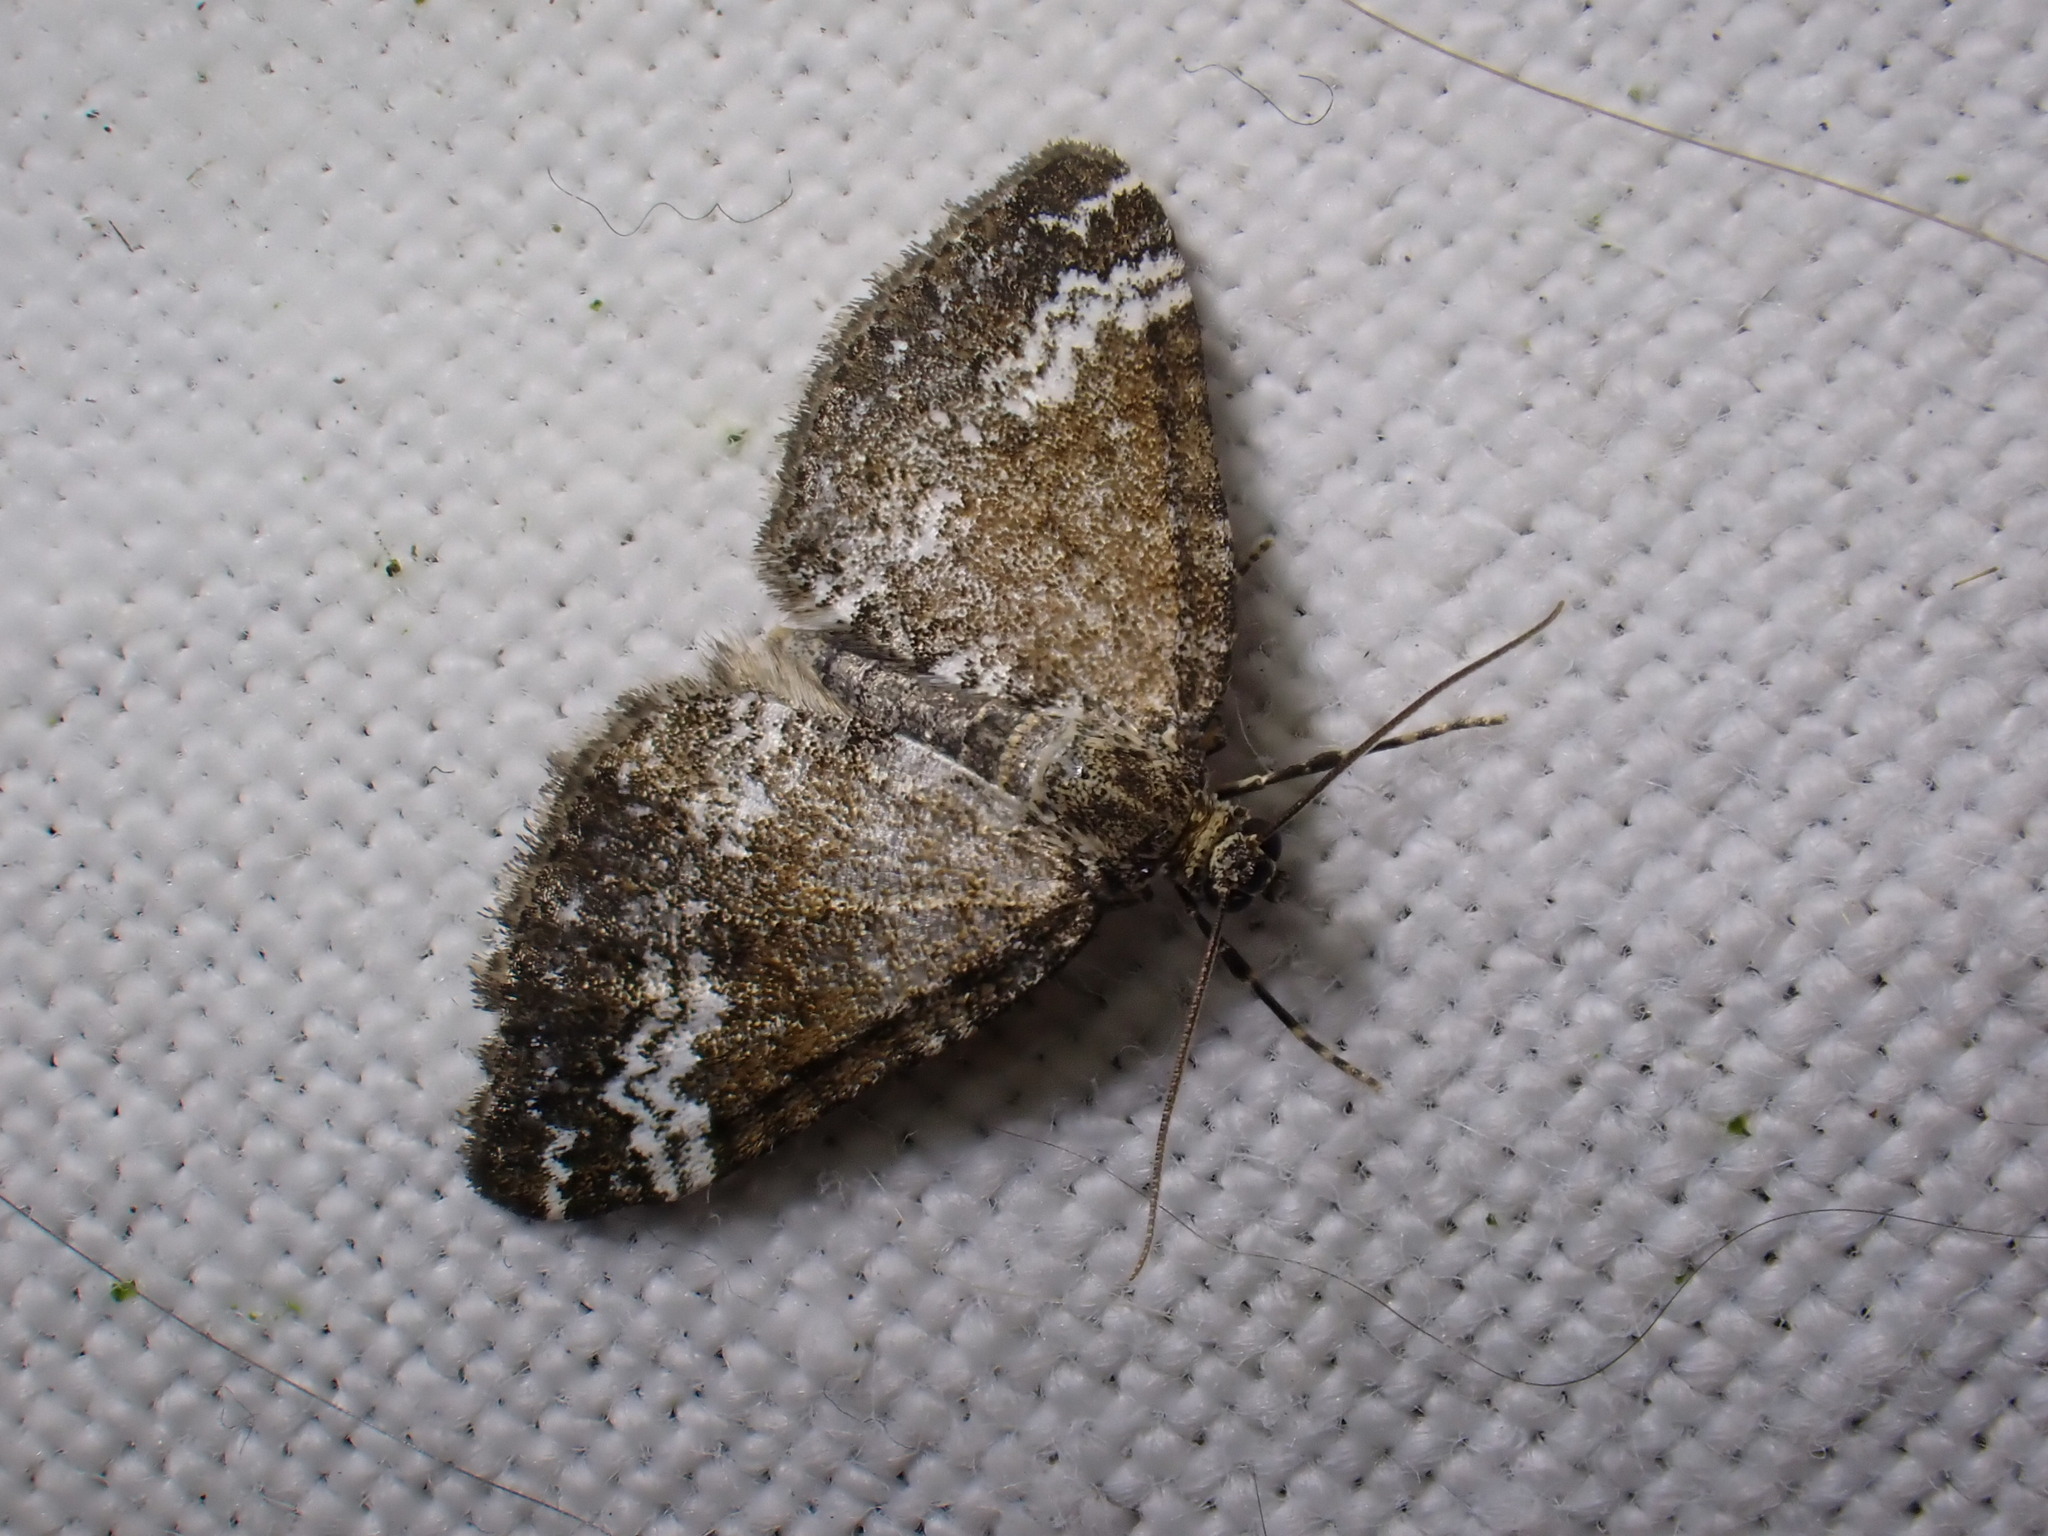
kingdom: Animalia
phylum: Arthropoda
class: Insecta
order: Lepidoptera
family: Geometridae
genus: Perizoma
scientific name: Perizoma alchemillata
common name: Small rivulet
